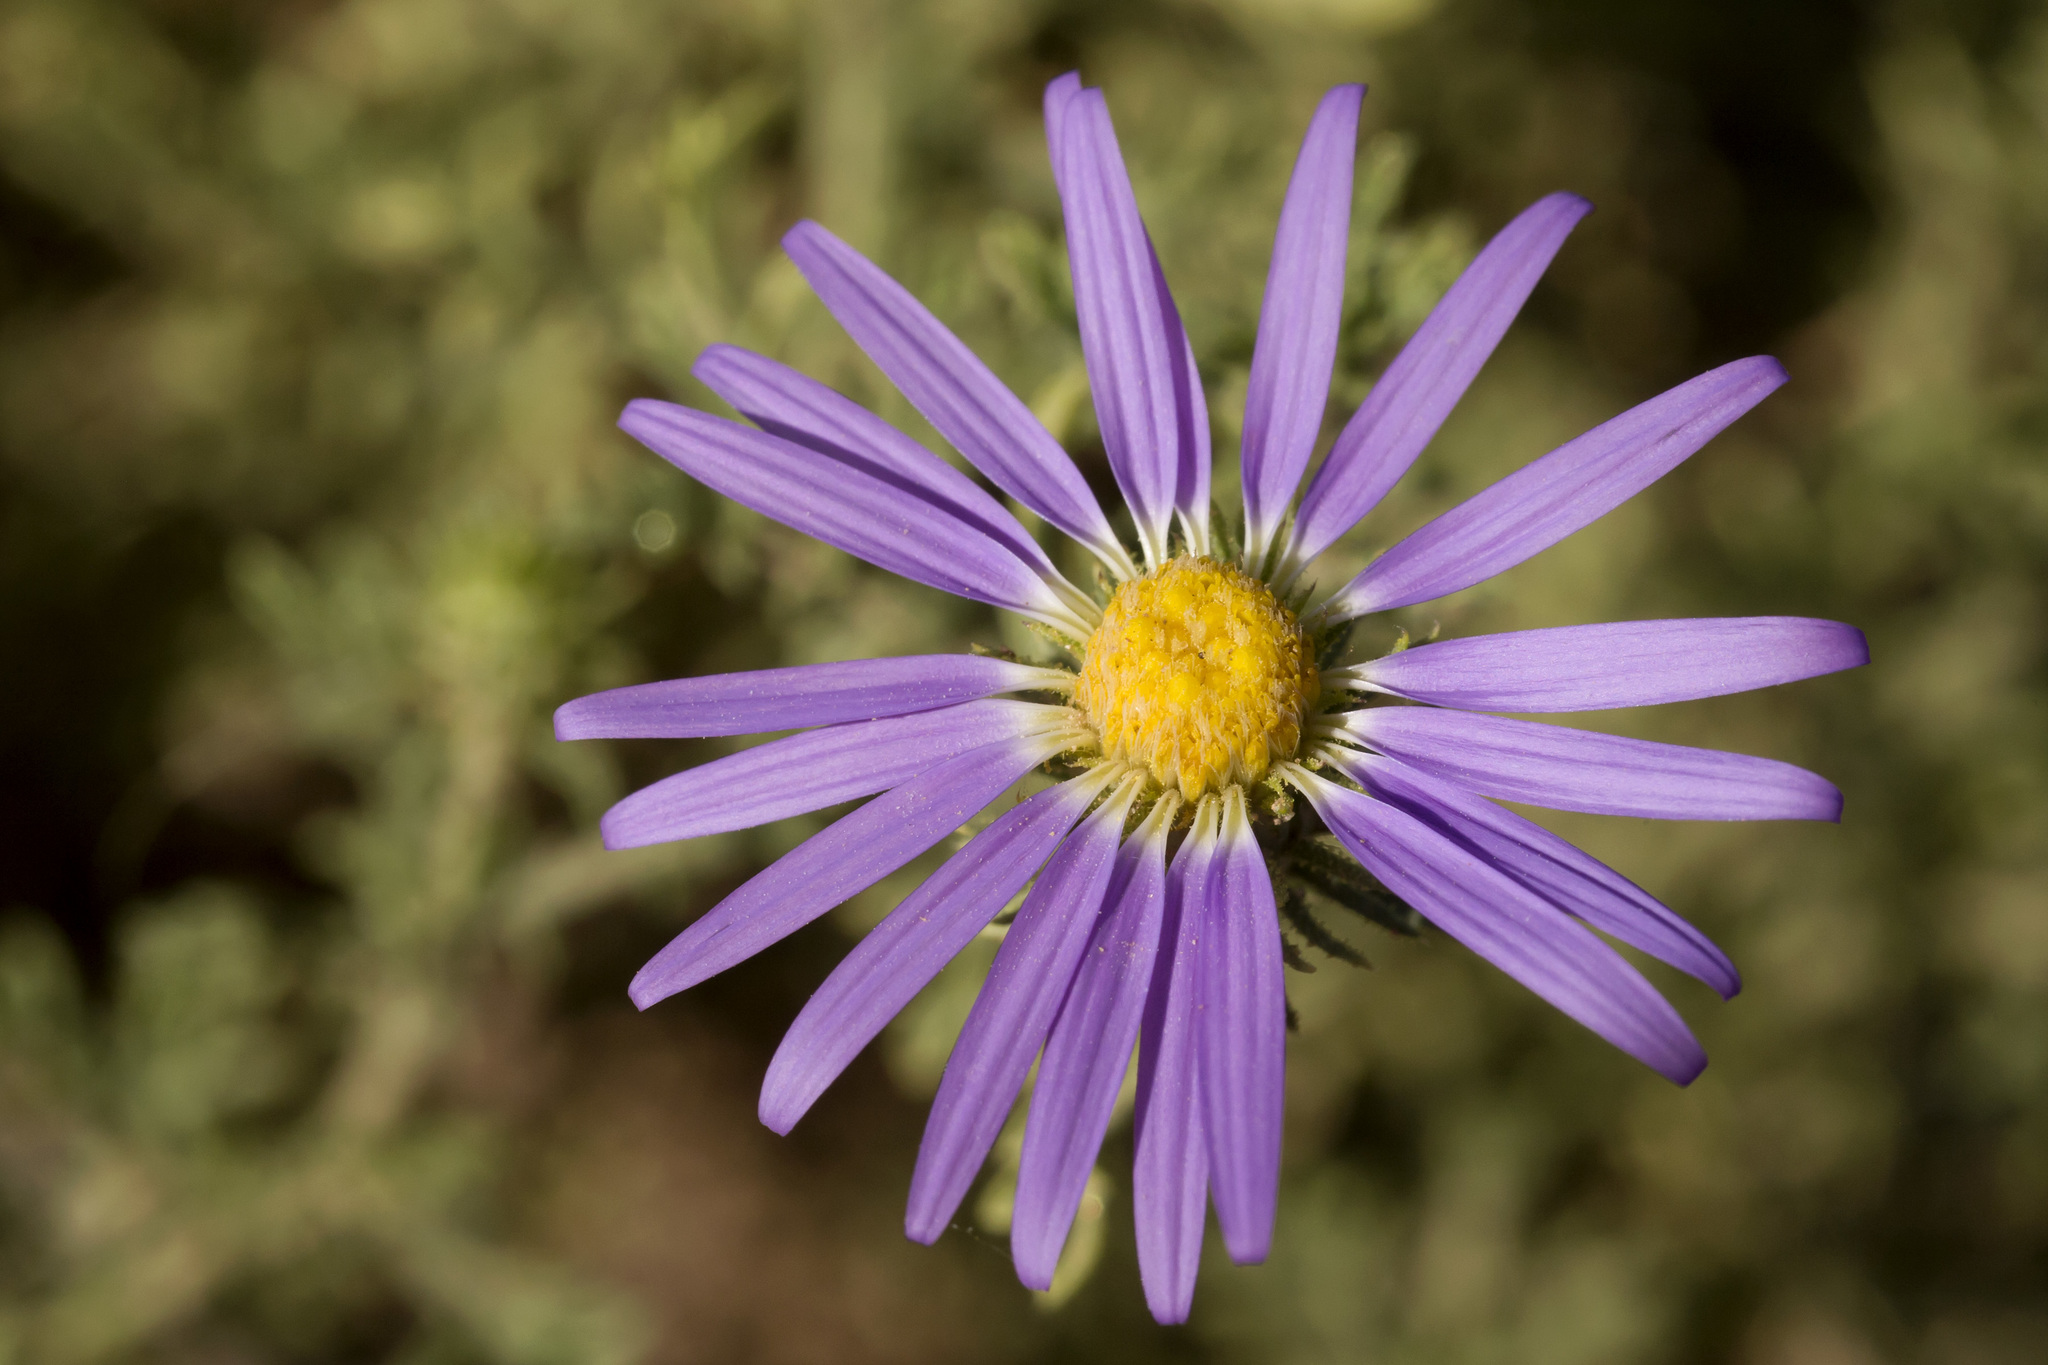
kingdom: Plantae
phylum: Tracheophyta
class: Magnoliopsida
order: Asterales
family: Asteraceae
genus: Machaeranthera
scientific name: Machaeranthera tanacetifolia
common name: Tansy-aster
